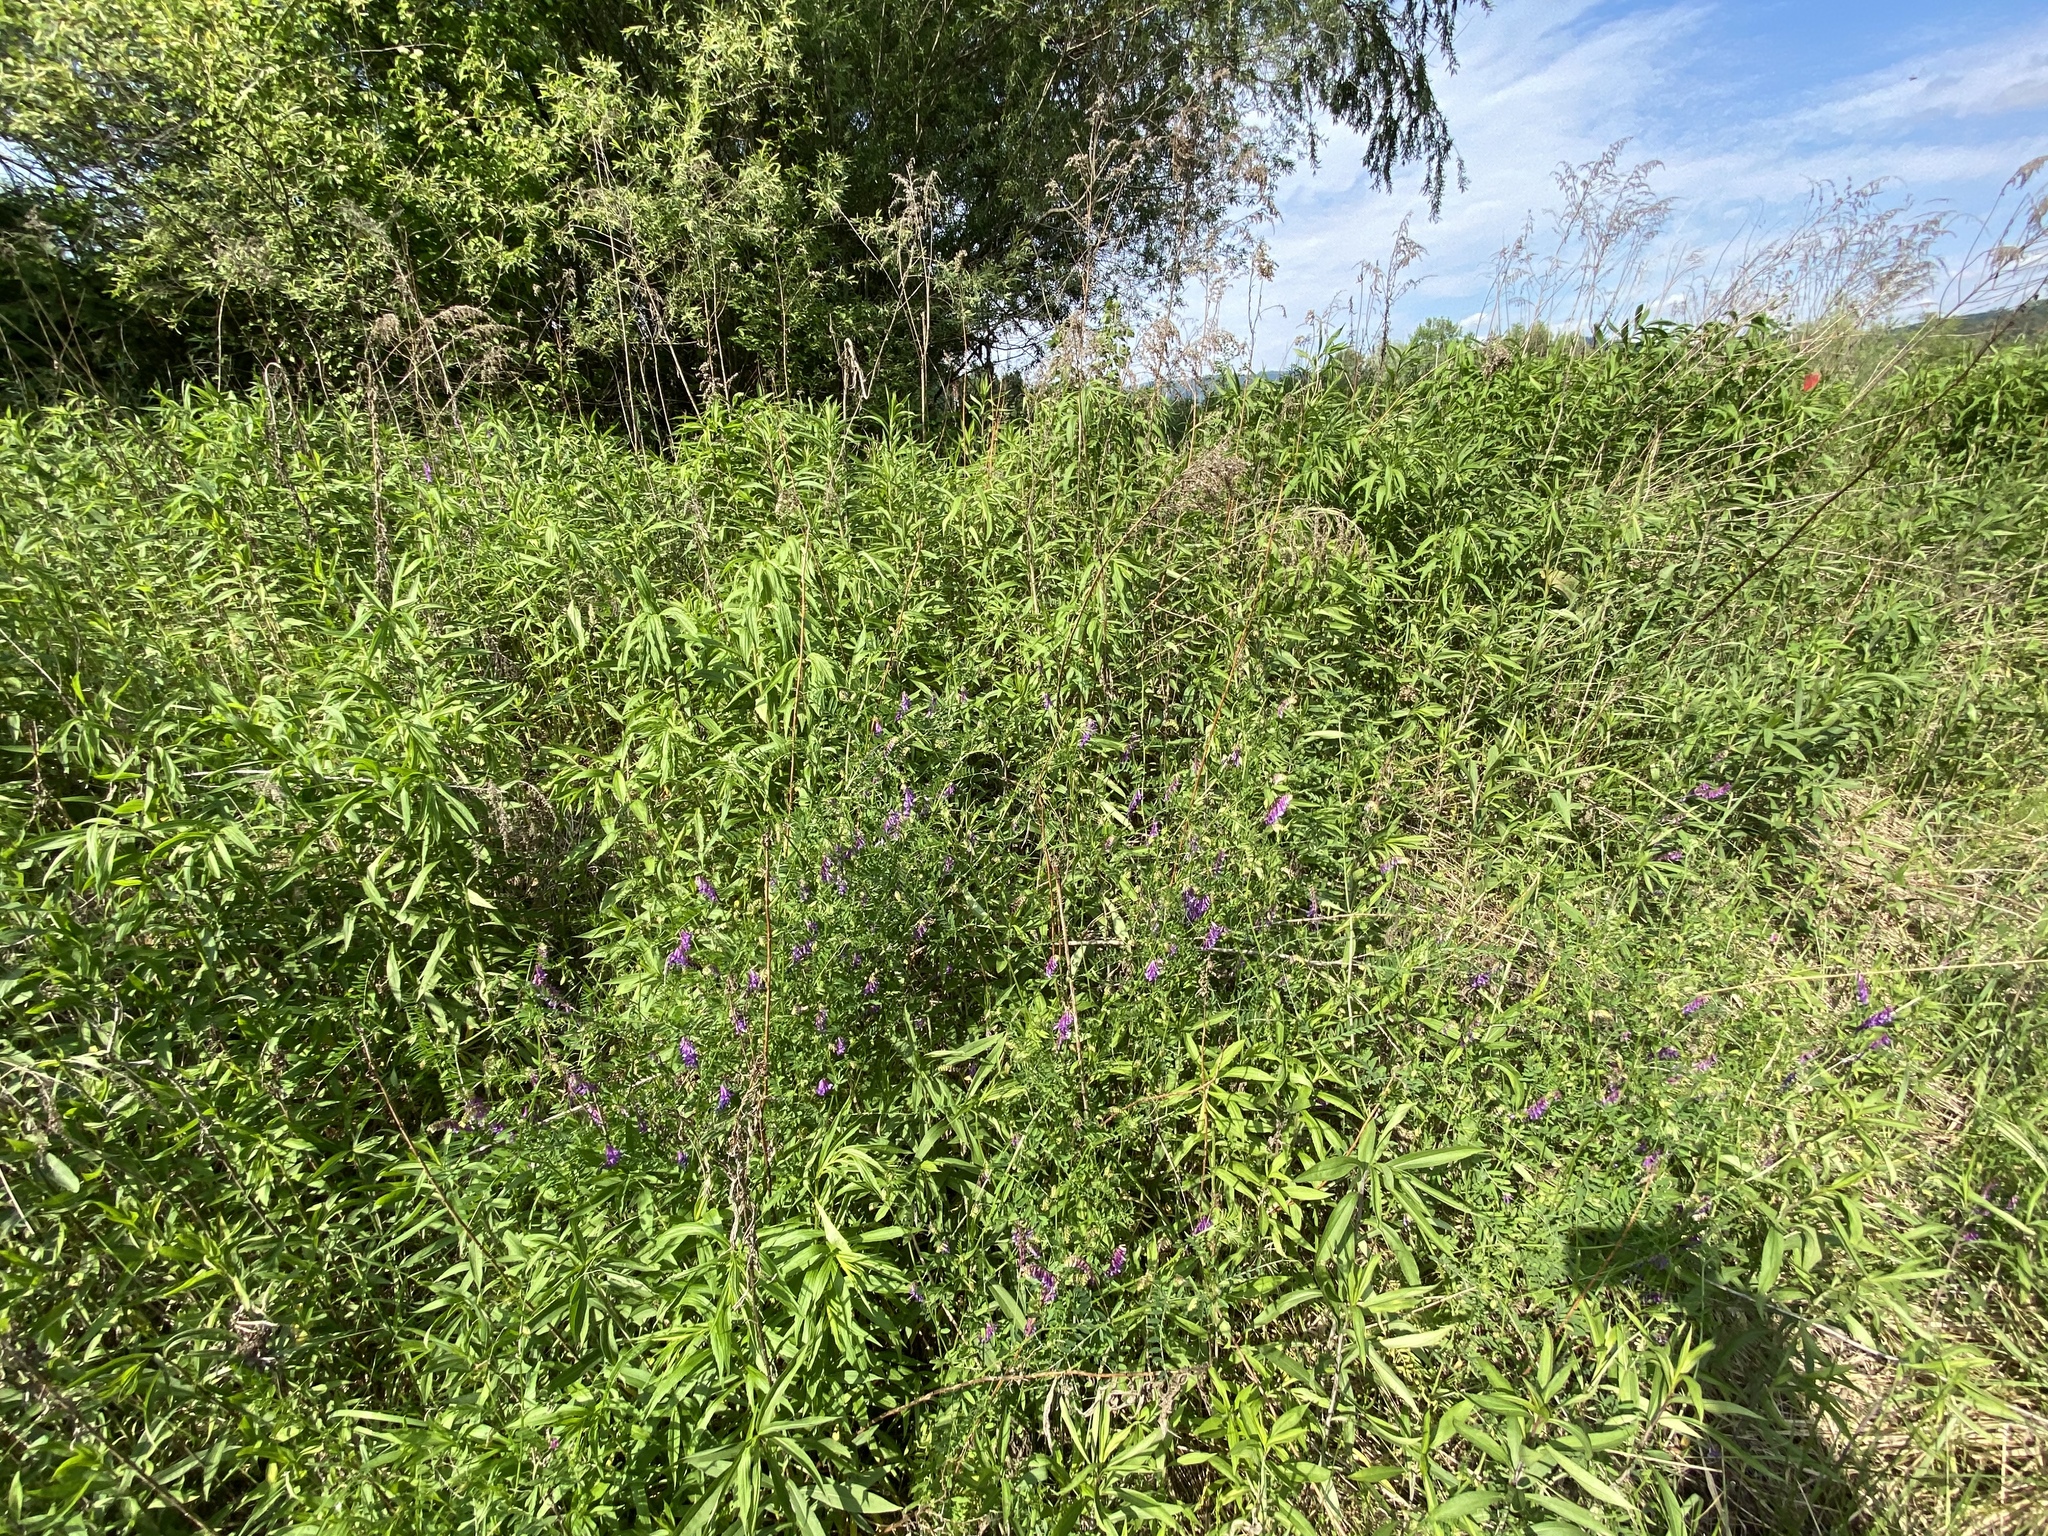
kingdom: Plantae
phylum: Tracheophyta
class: Magnoliopsida
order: Fabales
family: Fabaceae
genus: Vicia
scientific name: Vicia cracca
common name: Bird vetch
